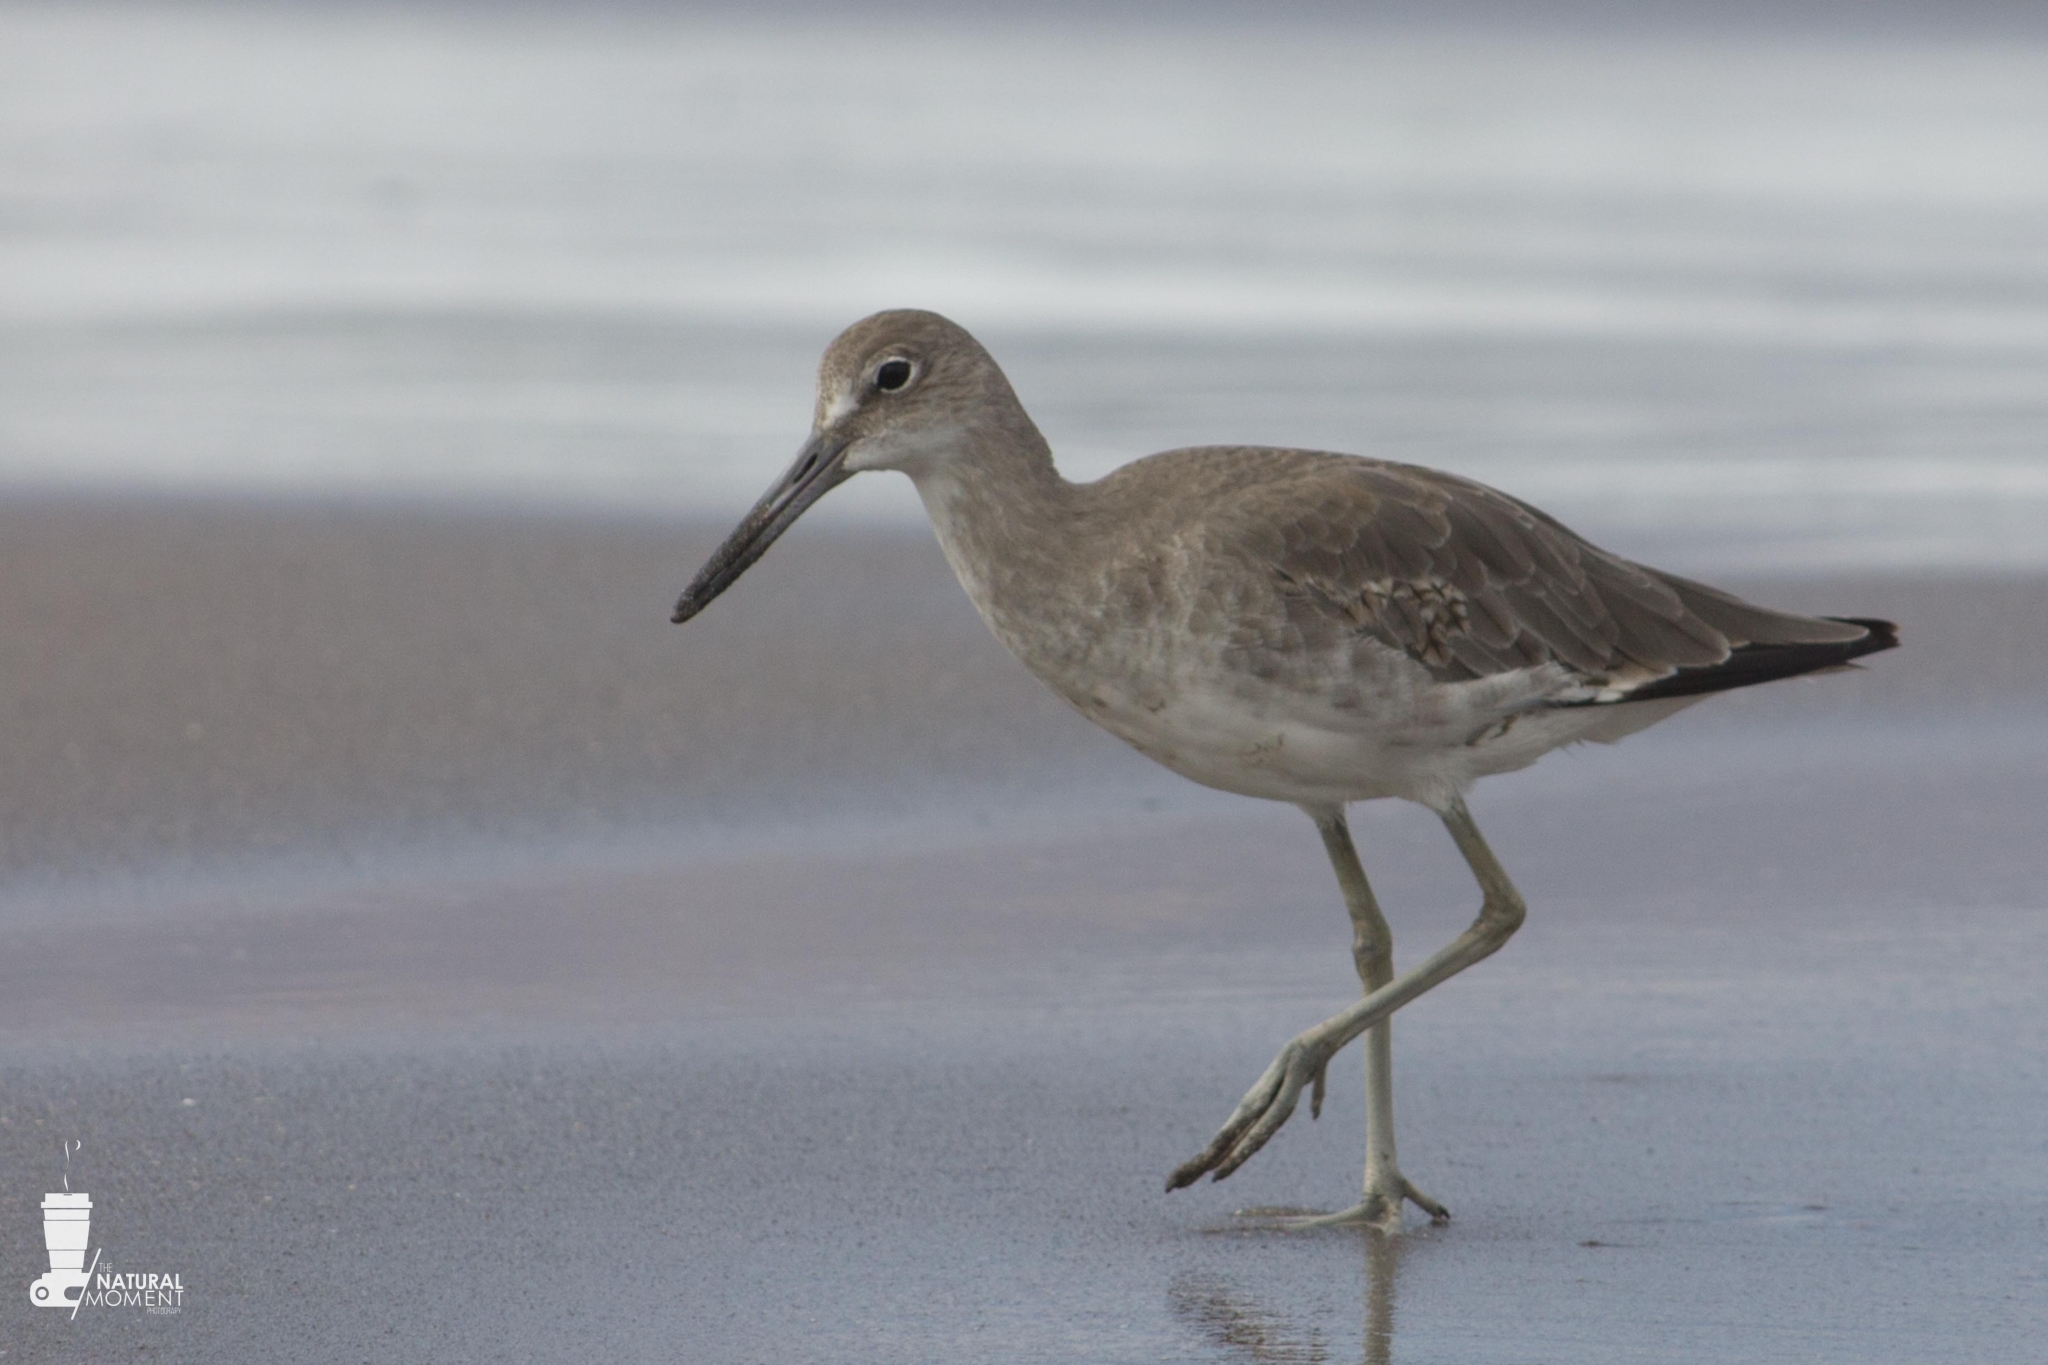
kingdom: Animalia
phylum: Chordata
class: Aves
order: Charadriiformes
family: Scolopacidae
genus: Tringa
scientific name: Tringa semipalmata
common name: Willet
